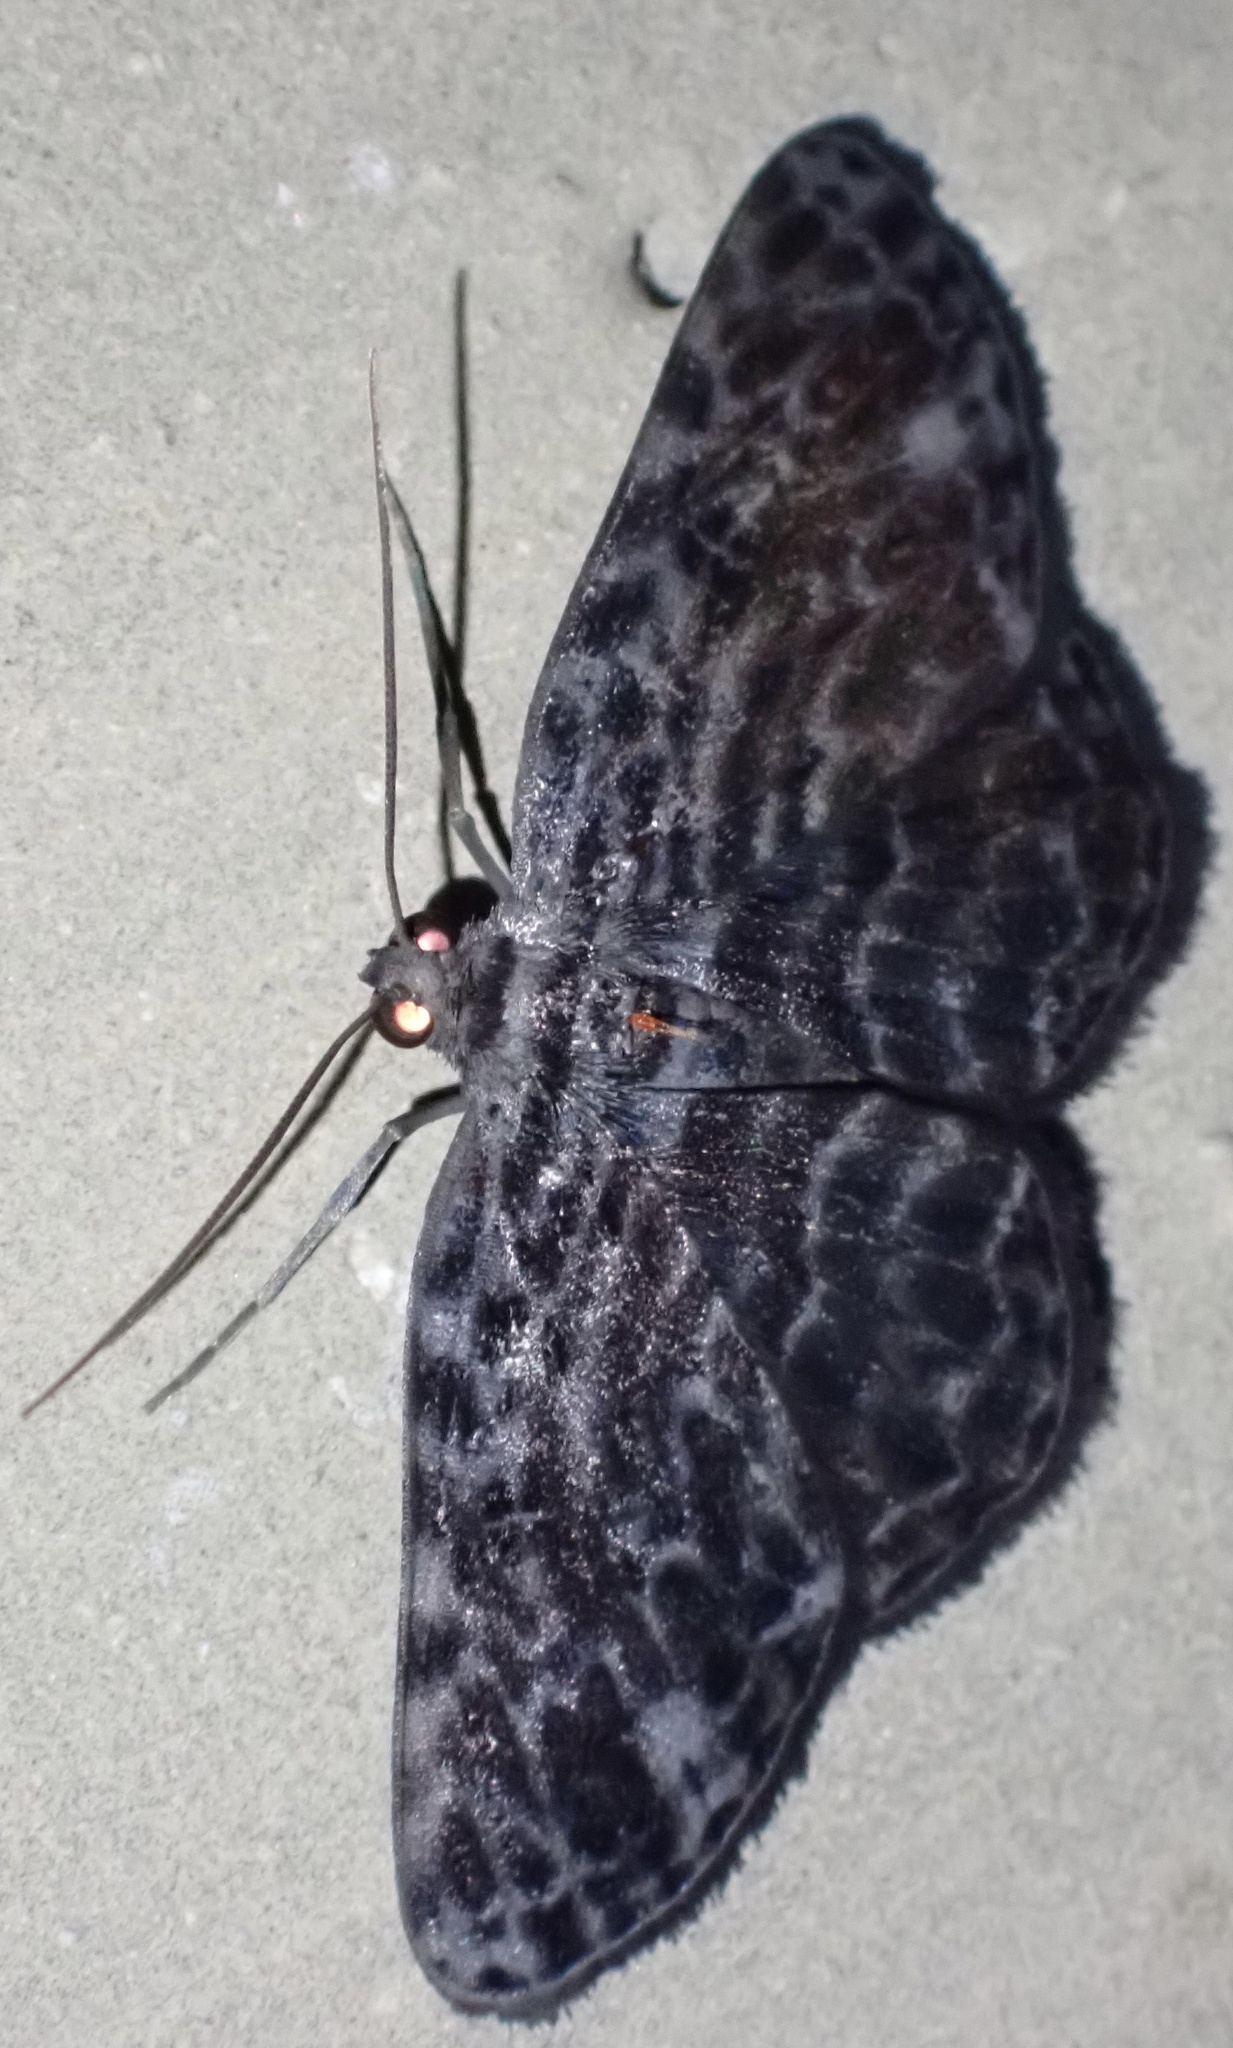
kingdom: Animalia
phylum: Arthropoda
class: Insecta
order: Lepidoptera
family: Geometridae
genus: Craspedosis
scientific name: Craspedosis mixtilinea
